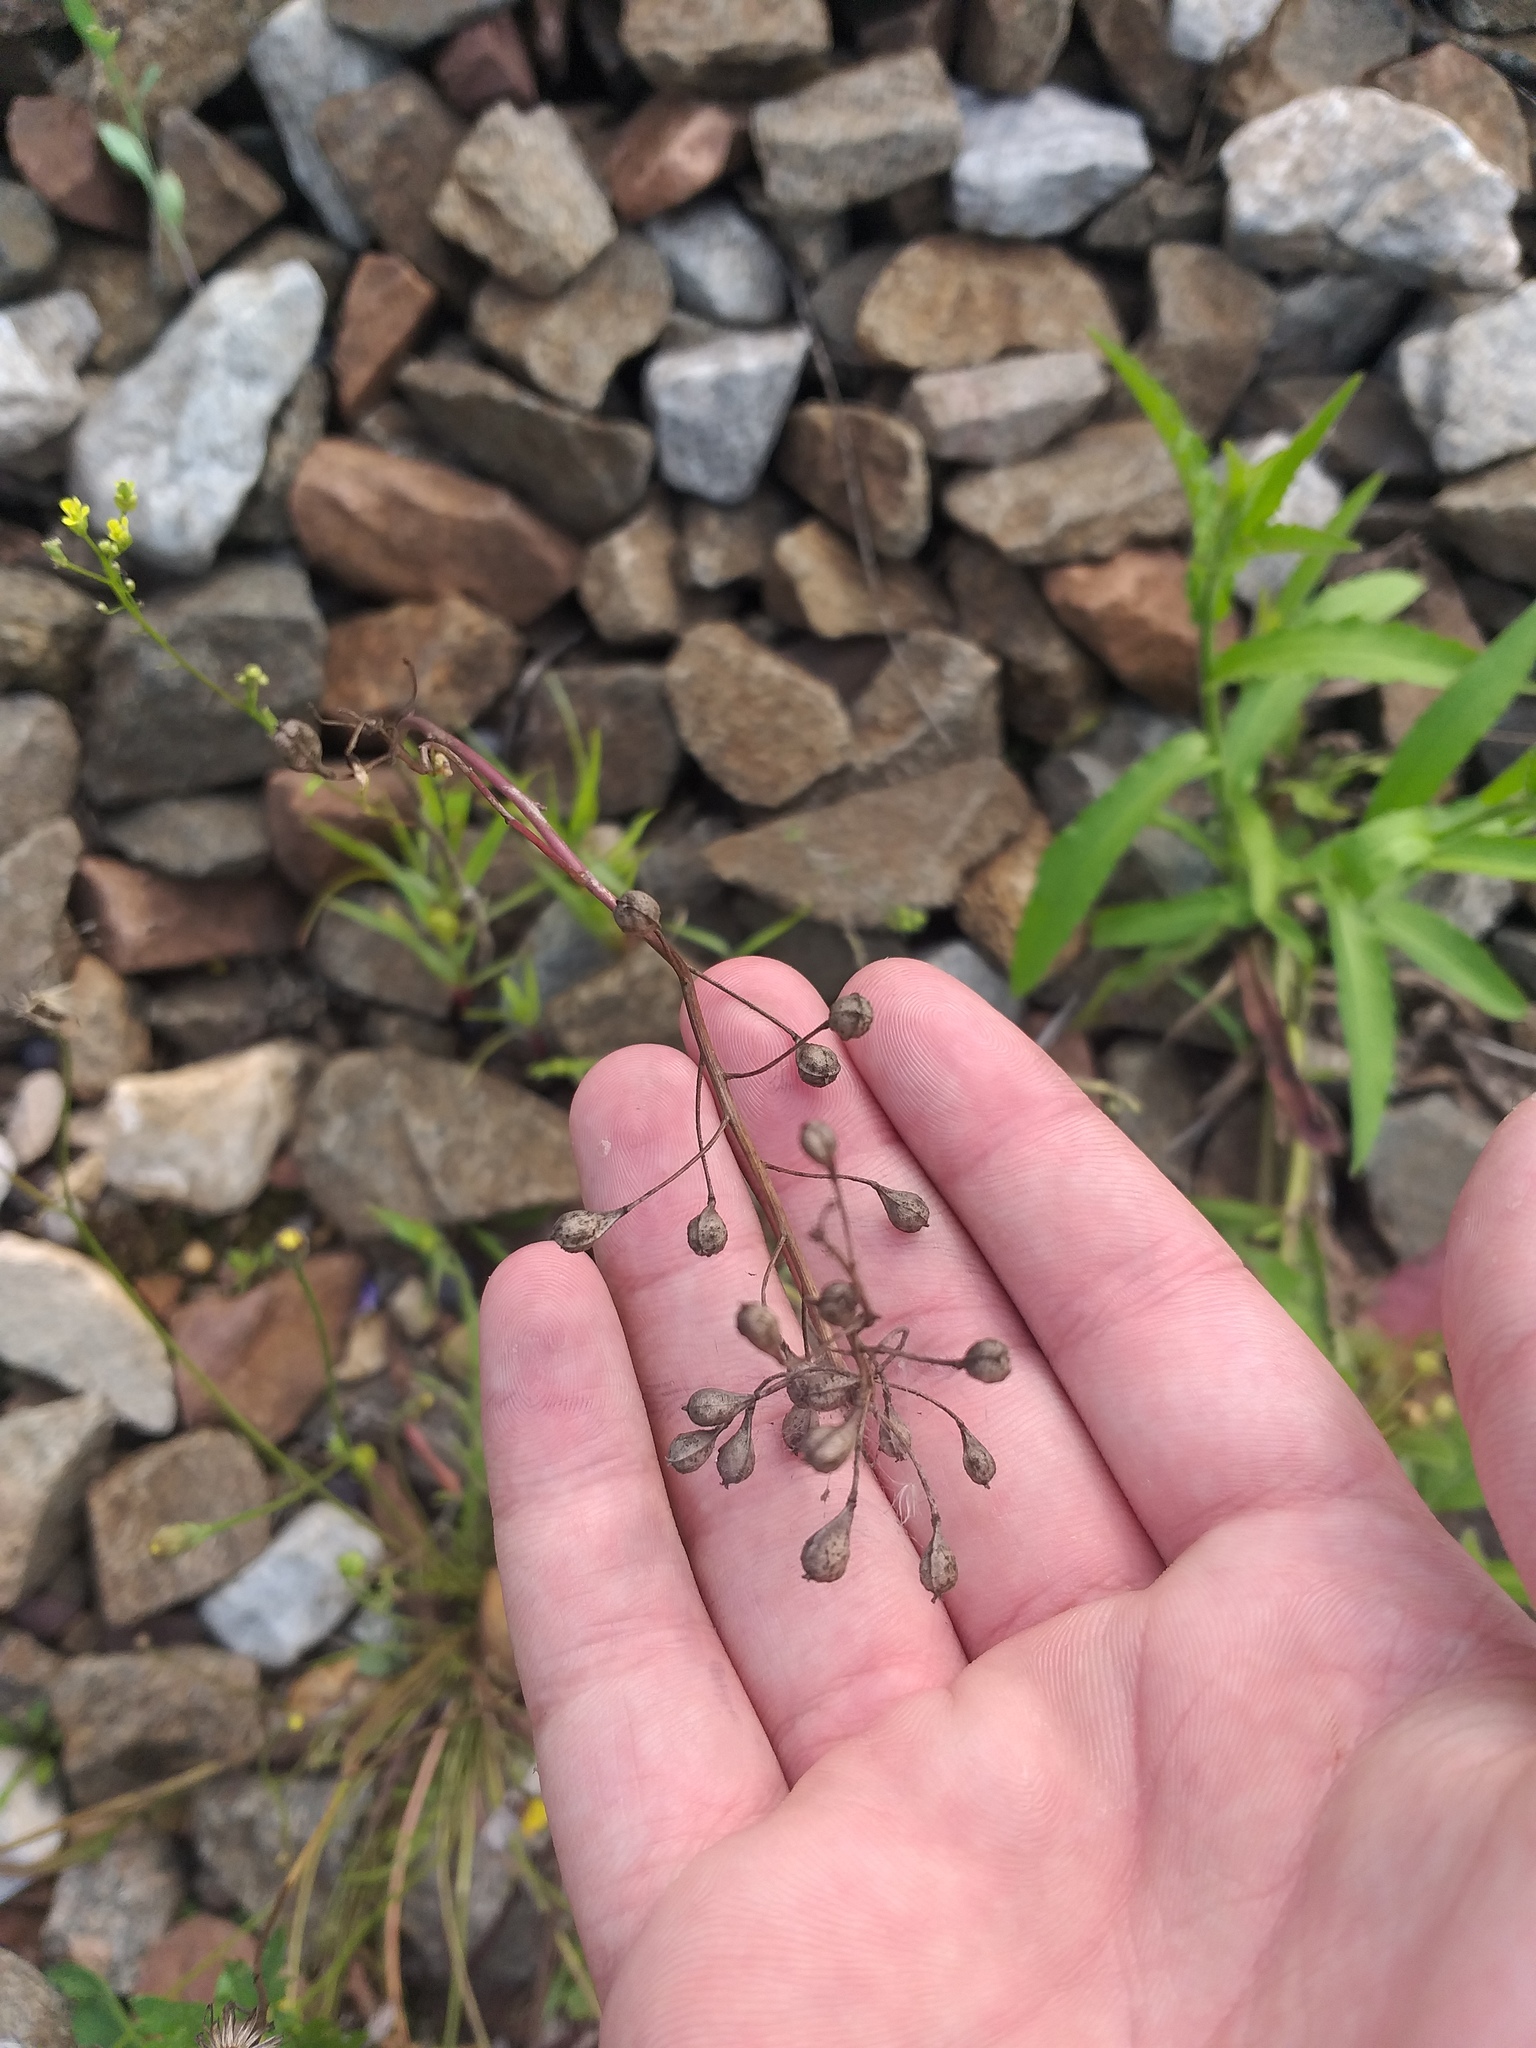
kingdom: Plantae
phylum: Tracheophyta
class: Magnoliopsida
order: Brassicales
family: Brassicaceae
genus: Camelina
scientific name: Camelina sativa
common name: Gold-of-pleasure
